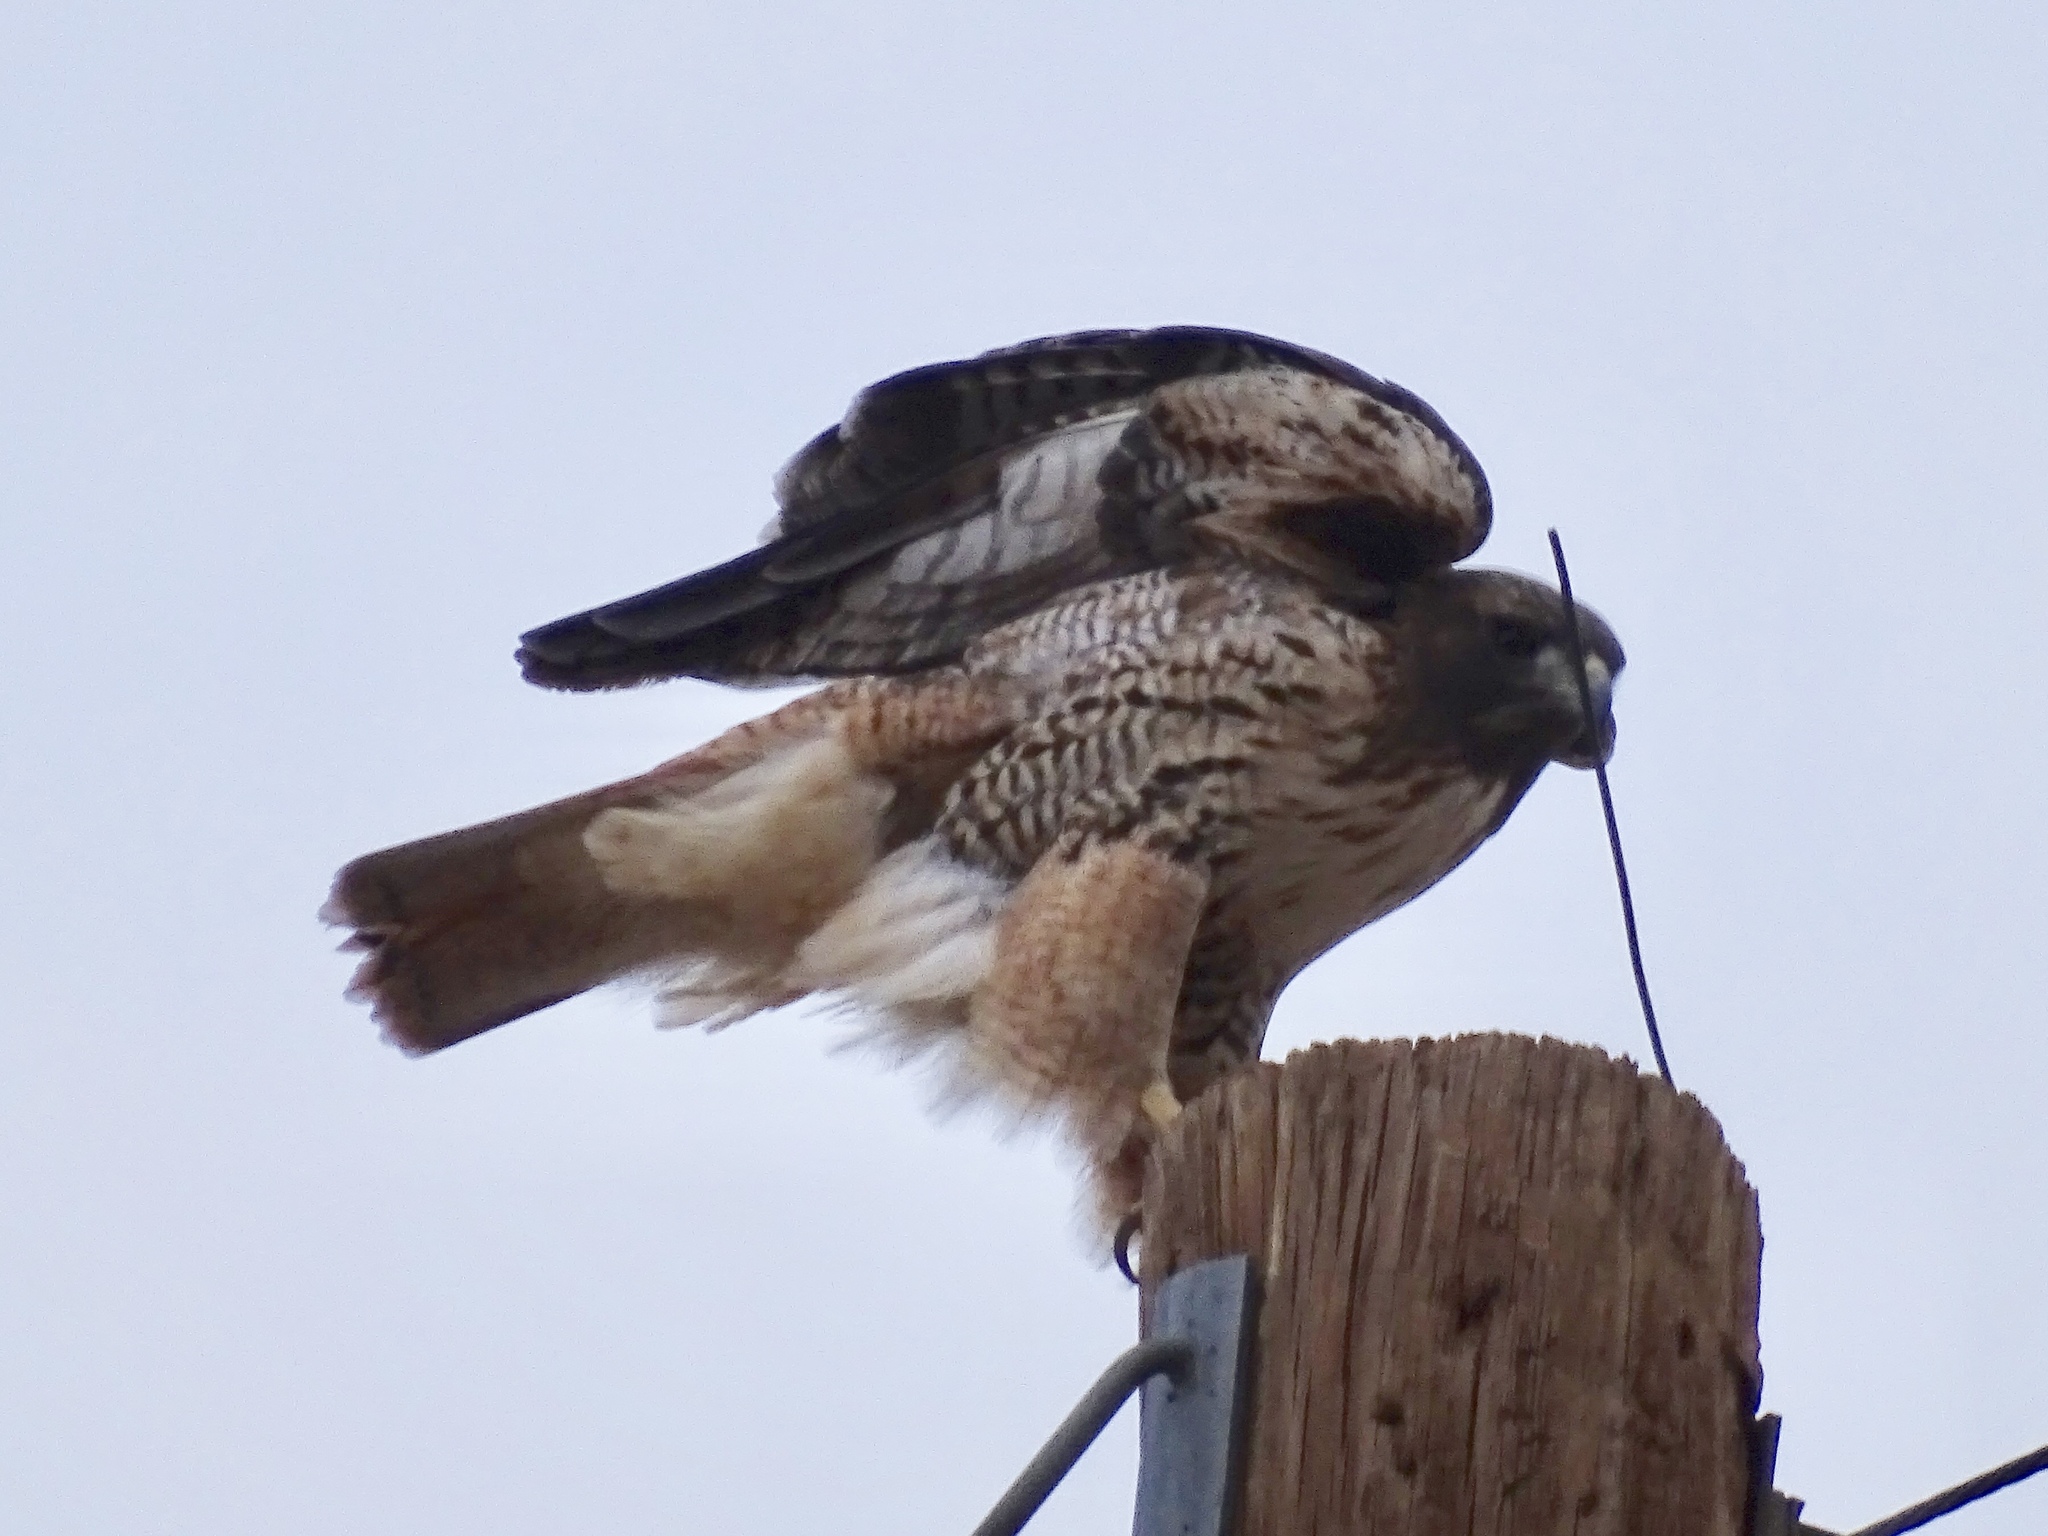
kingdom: Animalia
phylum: Chordata
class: Aves
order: Accipitriformes
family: Accipitridae
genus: Buteo
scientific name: Buteo jamaicensis
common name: Red-tailed hawk
